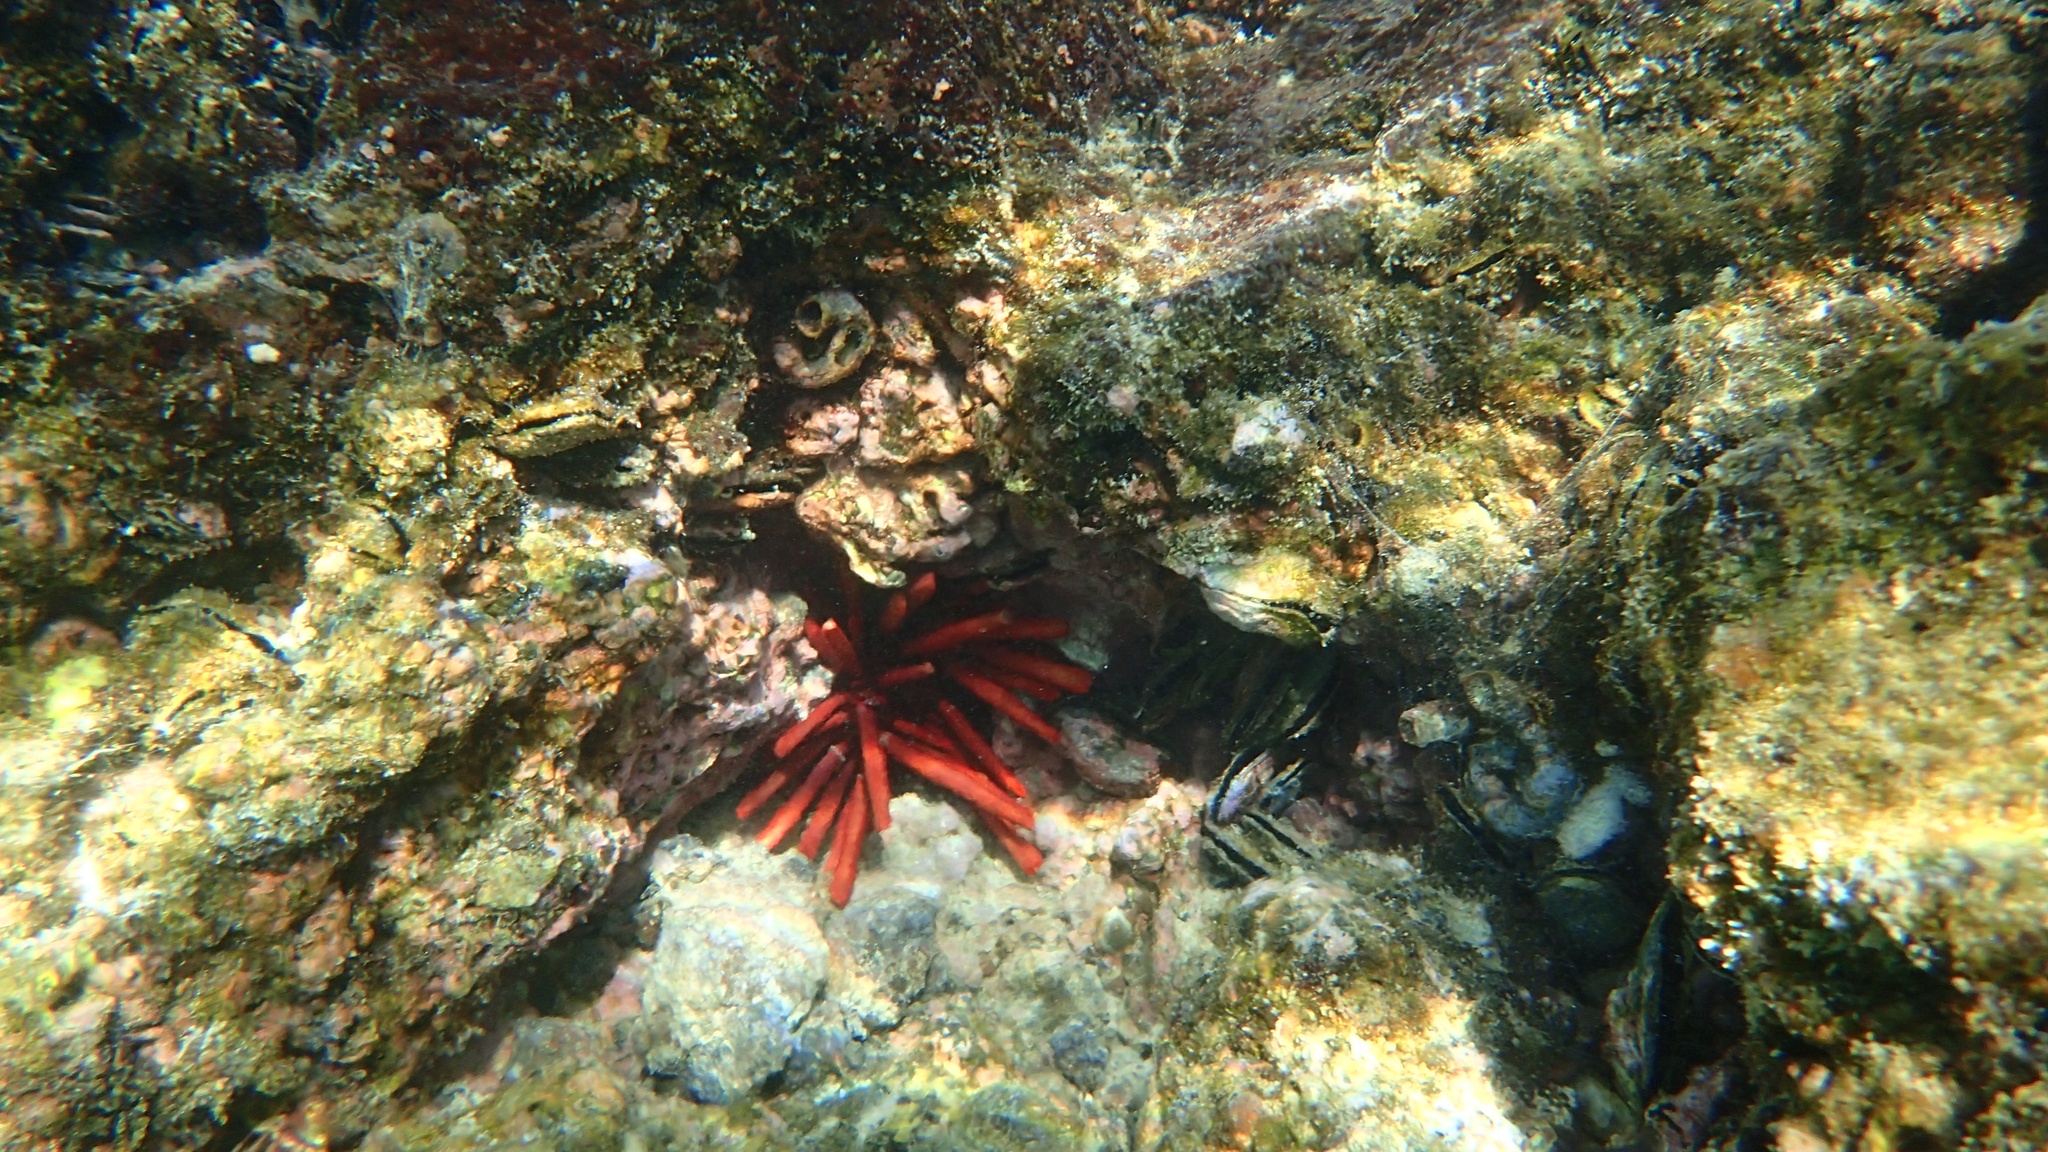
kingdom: Animalia
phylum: Echinodermata
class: Echinoidea
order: Camarodonta
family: Echinometridae
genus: Heterocentrotus
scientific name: Heterocentrotus mamillatus
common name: Slate pencil urchin
